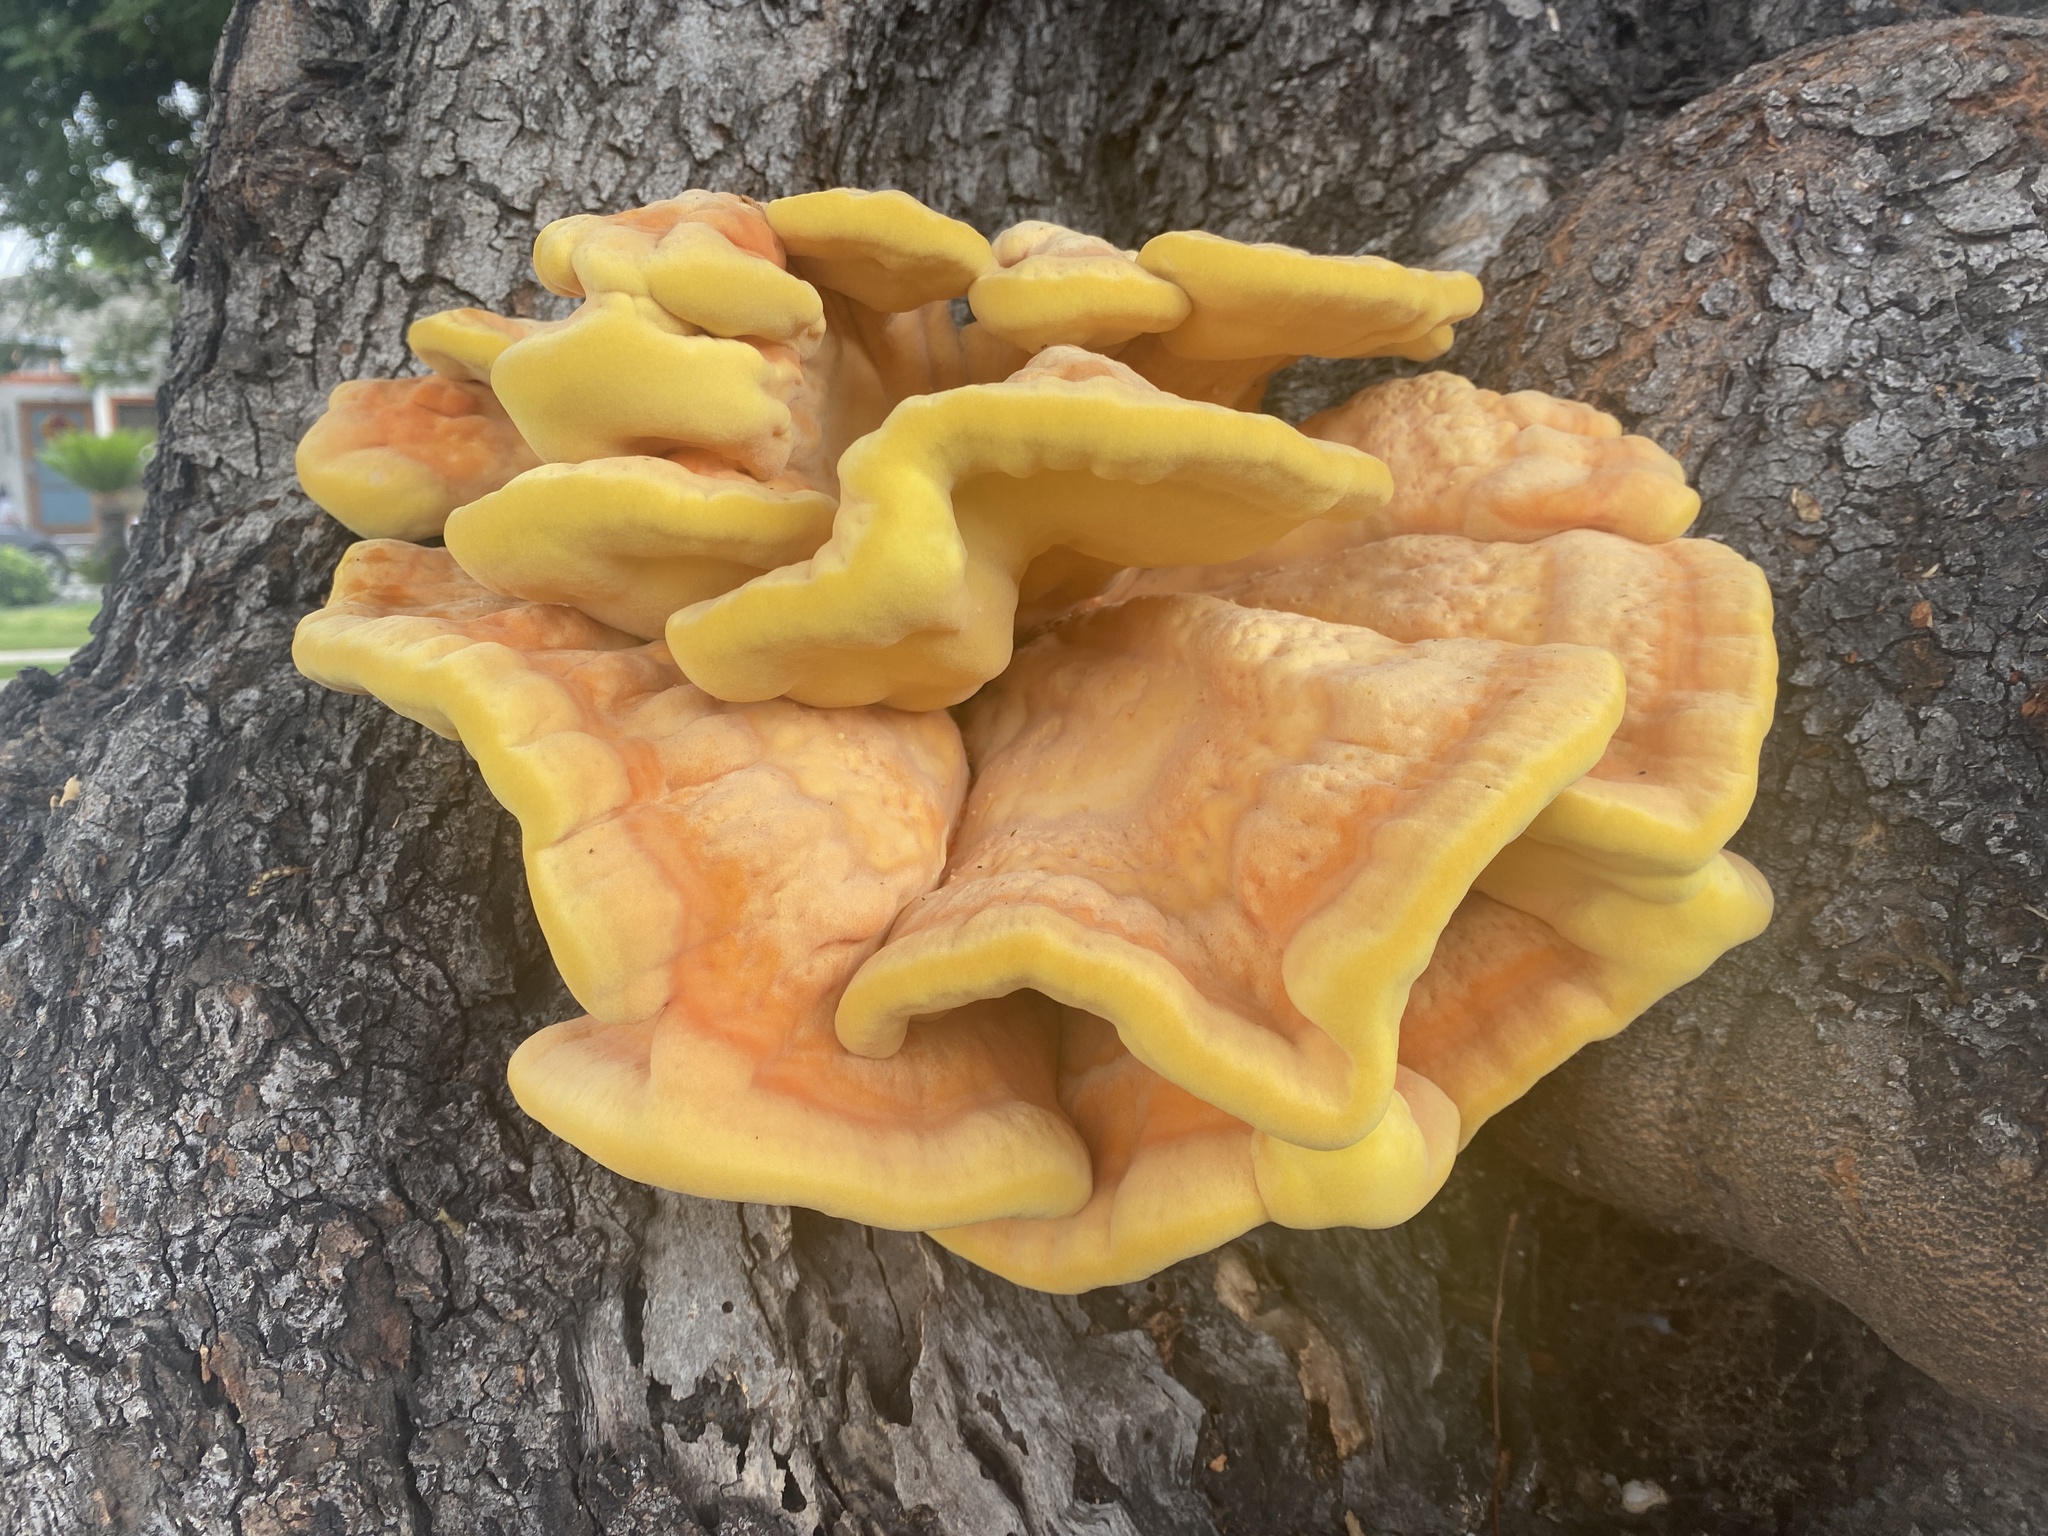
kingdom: Fungi
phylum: Basidiomycota
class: Agaricomycetes
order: Polyporales
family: Laetiporaceae
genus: Laetiporus
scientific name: Laetiporus gilbertsonii
